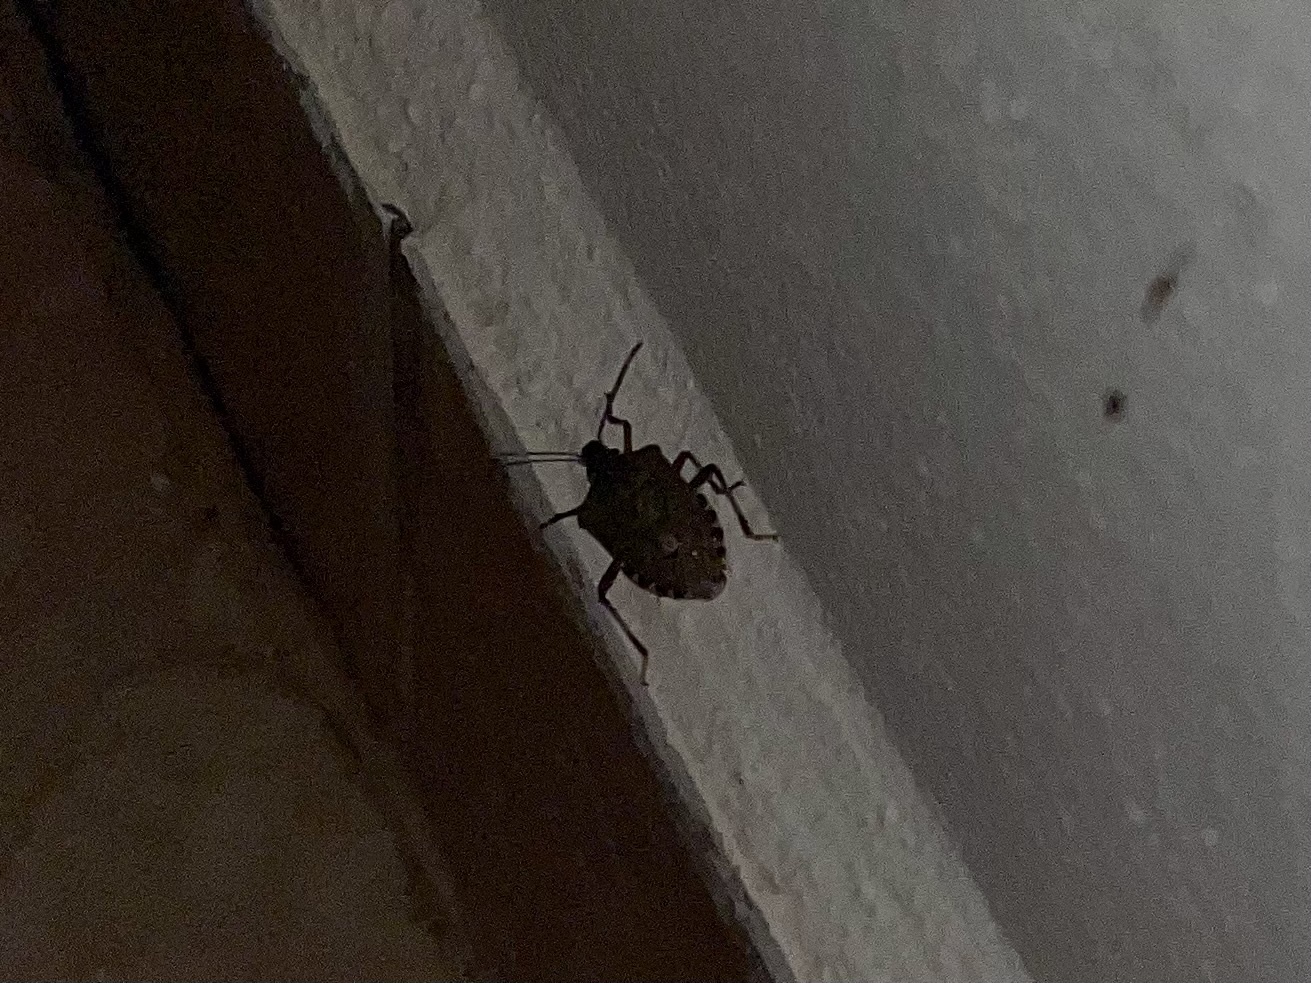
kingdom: Animalia
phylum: Arthropoda
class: Insecta
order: Hemiptera
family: Pentatomidae
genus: Halyomorpha
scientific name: Halyomorpha halys
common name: Brown marmorated stink bug
